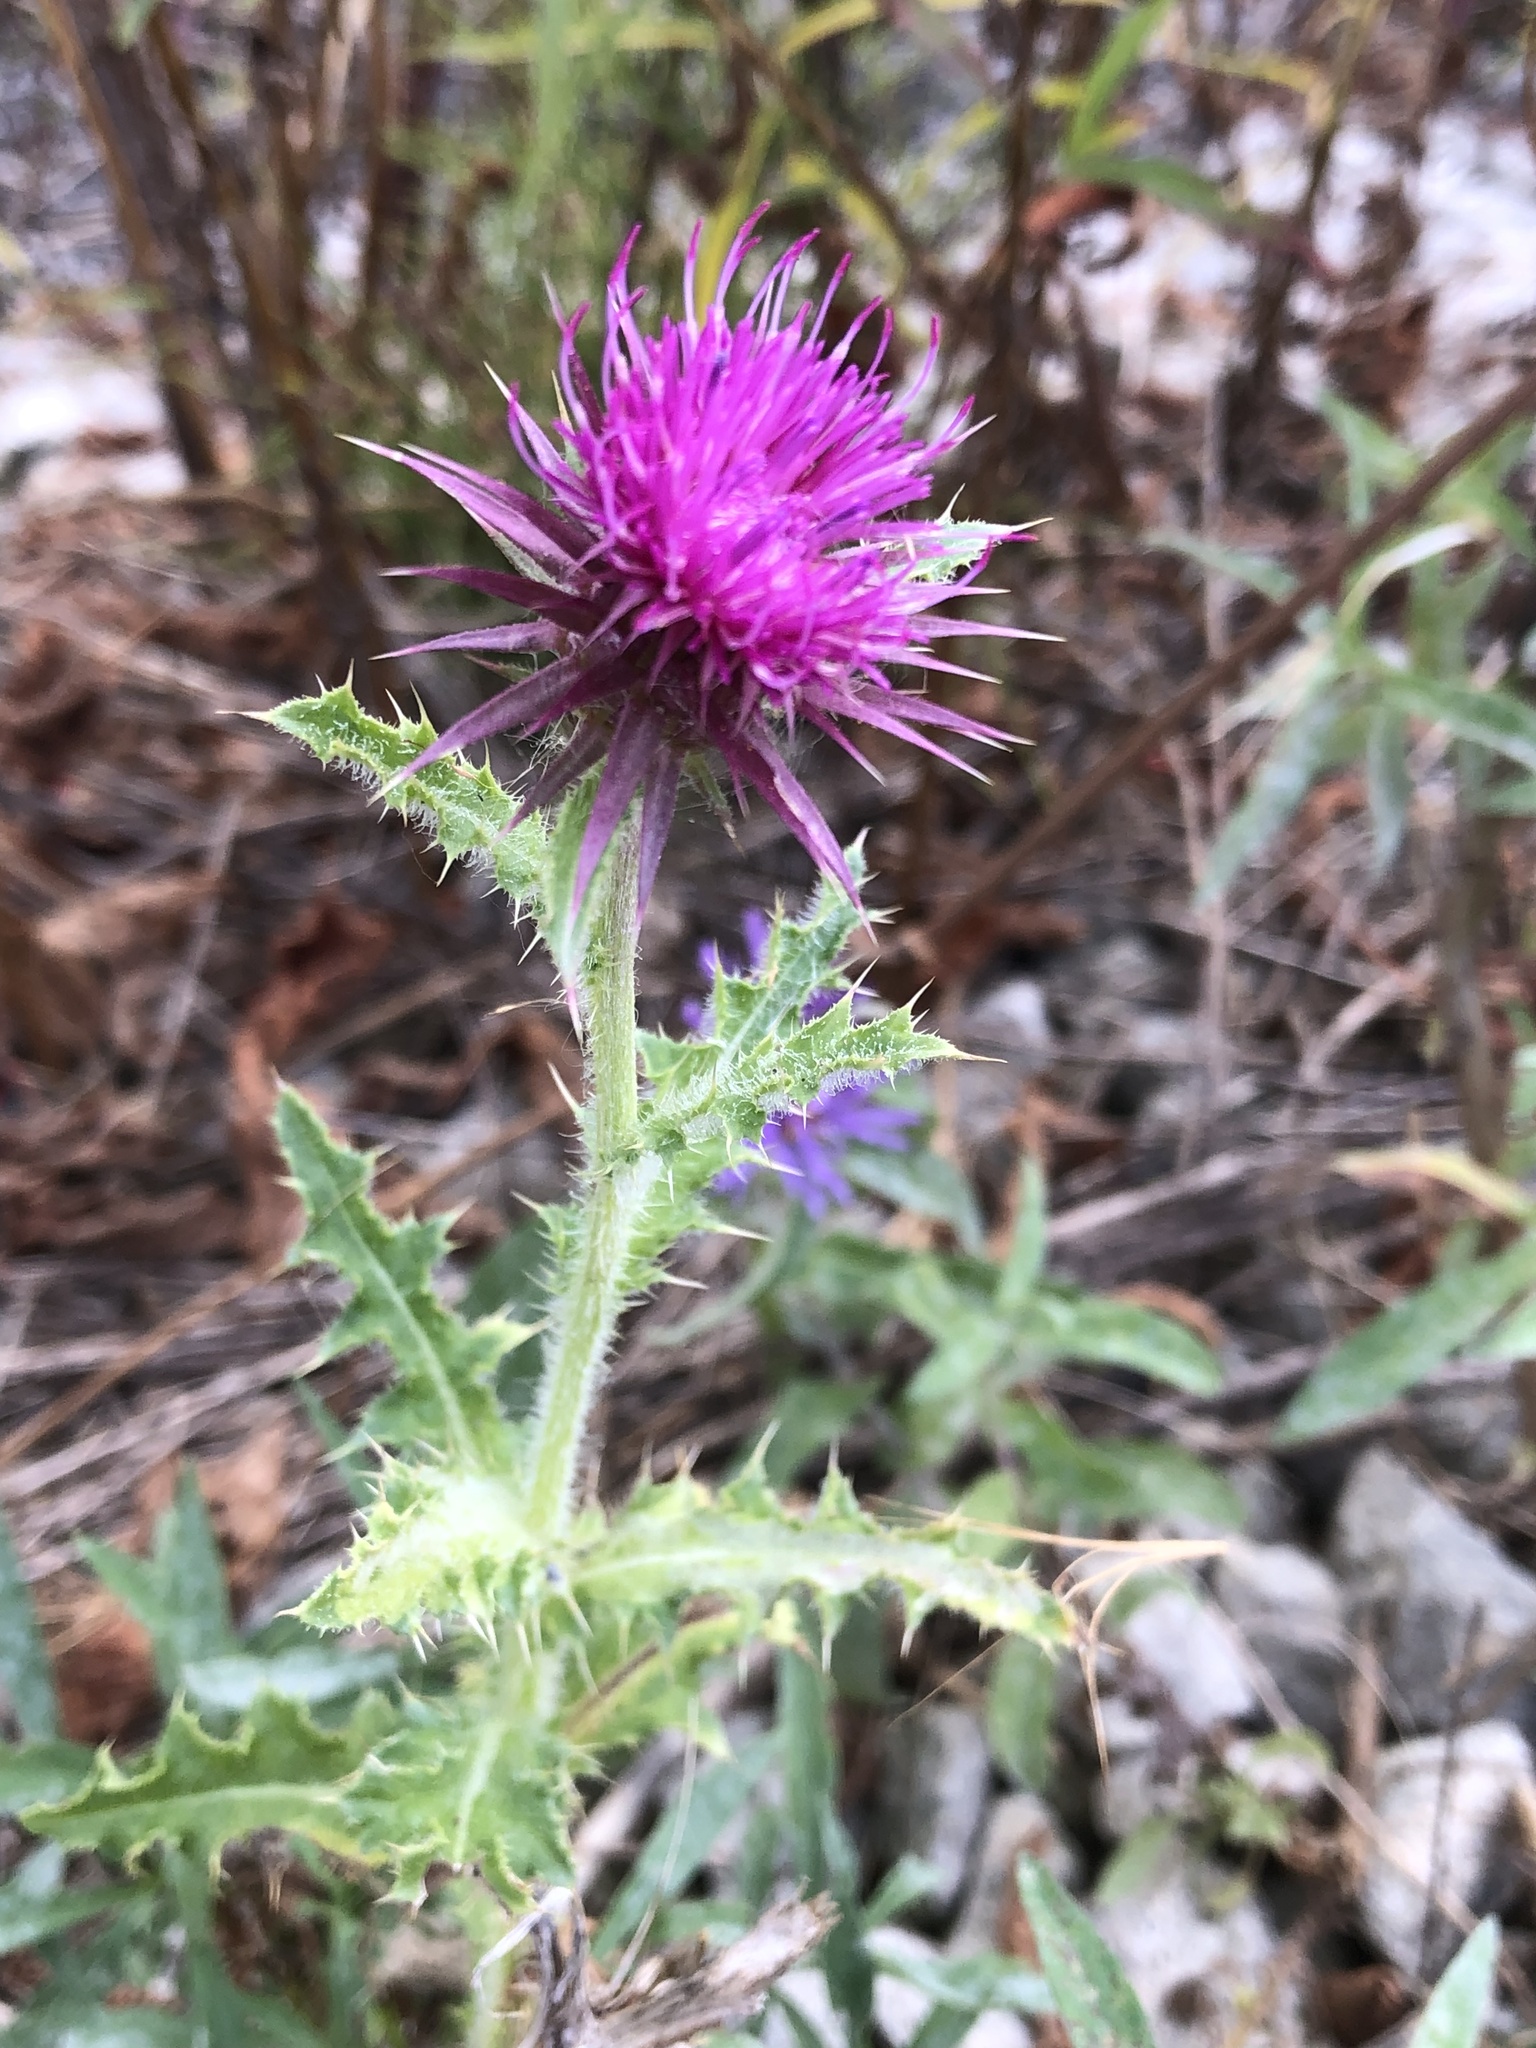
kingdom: Plantae
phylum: Tracheophyta
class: Magnoliopsida
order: Asterales
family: Asteraceae
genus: Carduus
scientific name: Carduus nutans
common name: Musk thistle
